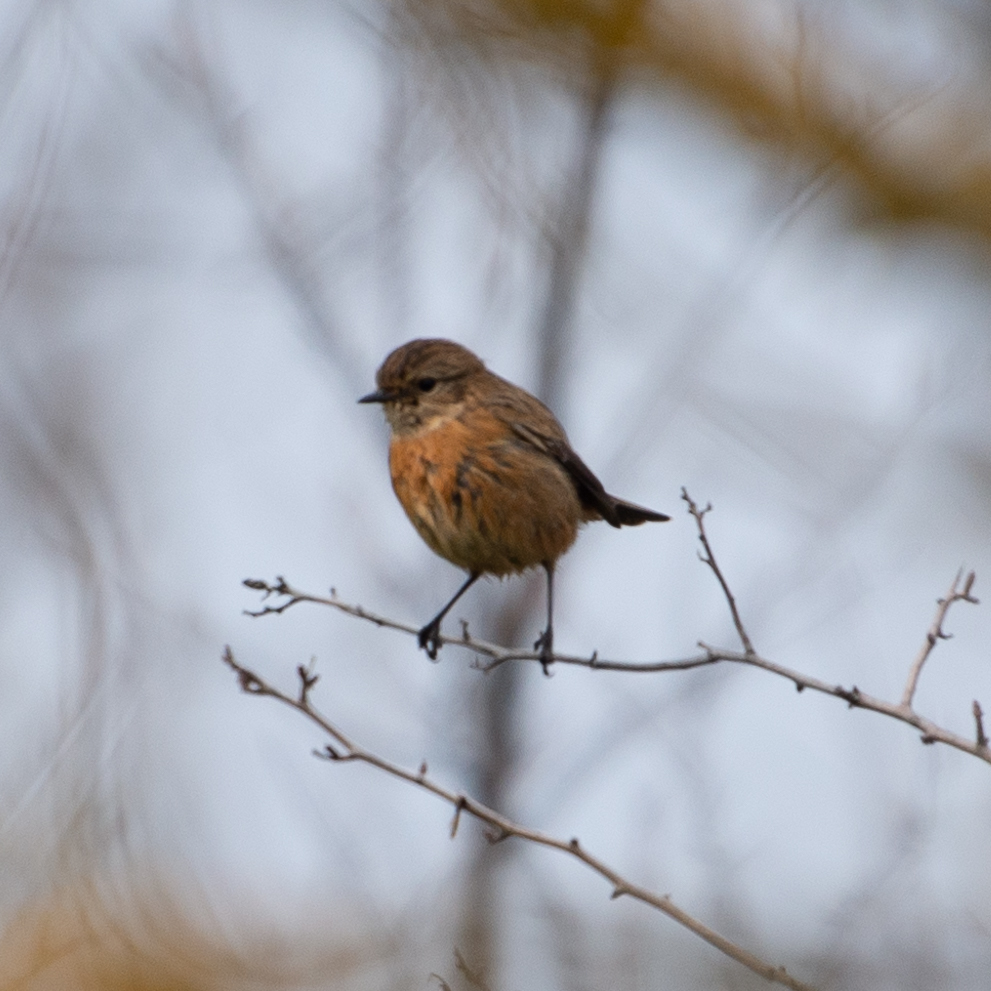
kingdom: Animalia
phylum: Chordata
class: Aves
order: Passeriformes
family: Muscicapidae
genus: Saxicola
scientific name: Saxicola rubicola
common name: European stonechat
